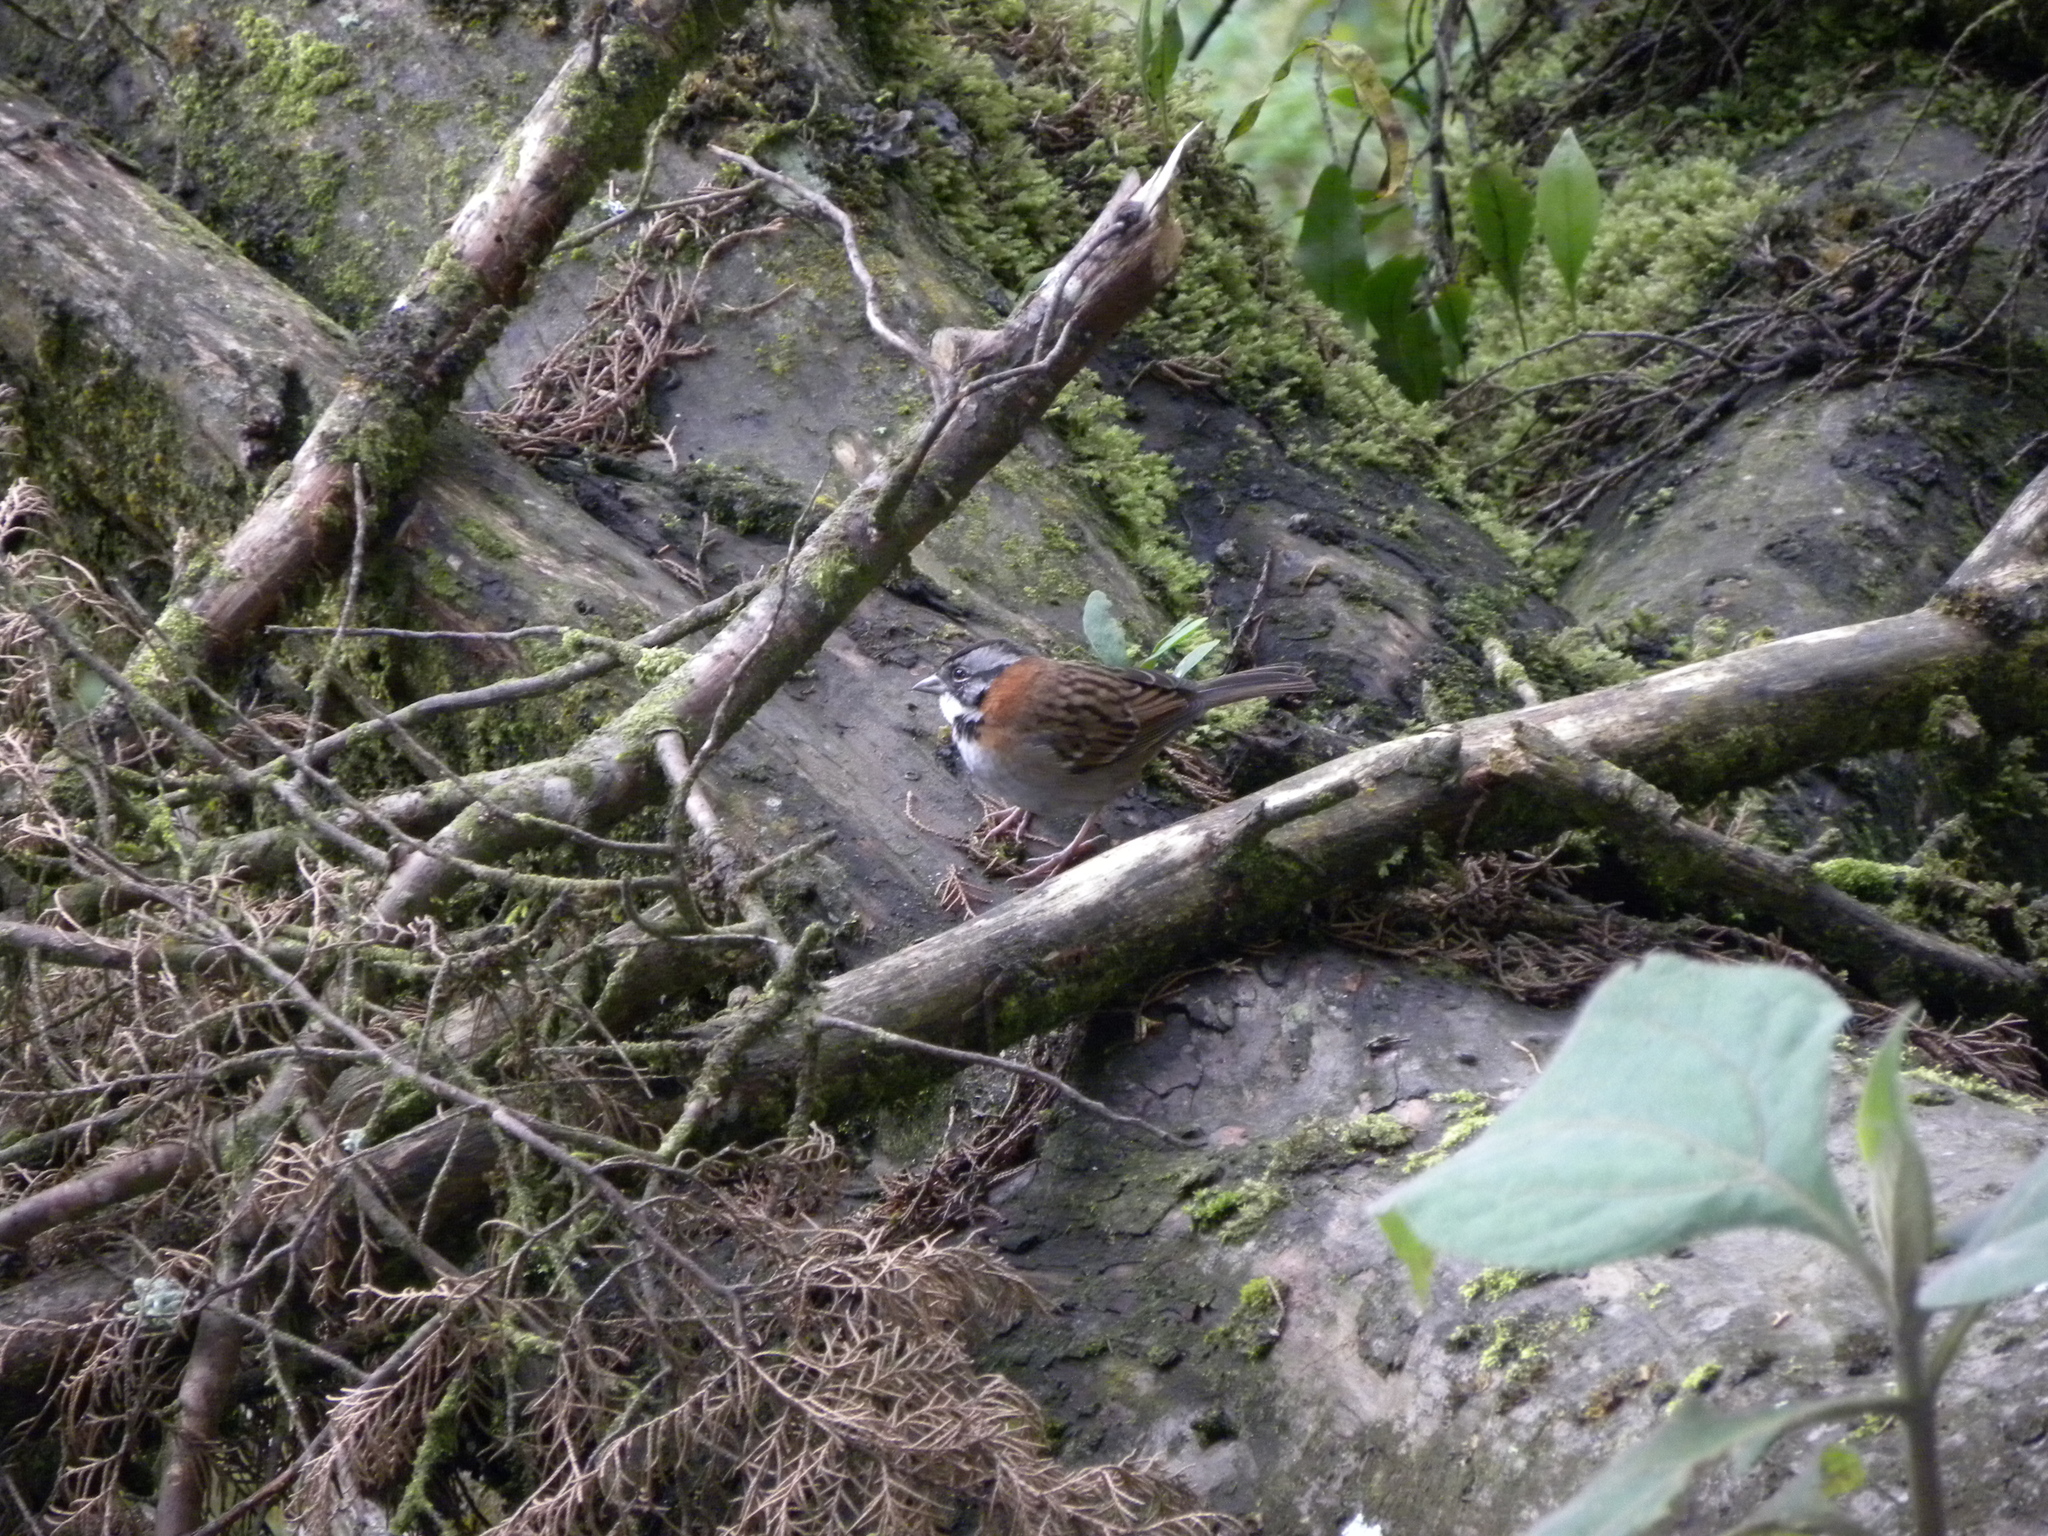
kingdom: Animalia
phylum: Chordata
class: Aves
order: Passeriformes
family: Passerellidae
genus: Zonotrichia
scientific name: Zonotrichia capensis
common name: Rufous-collared sparrow
